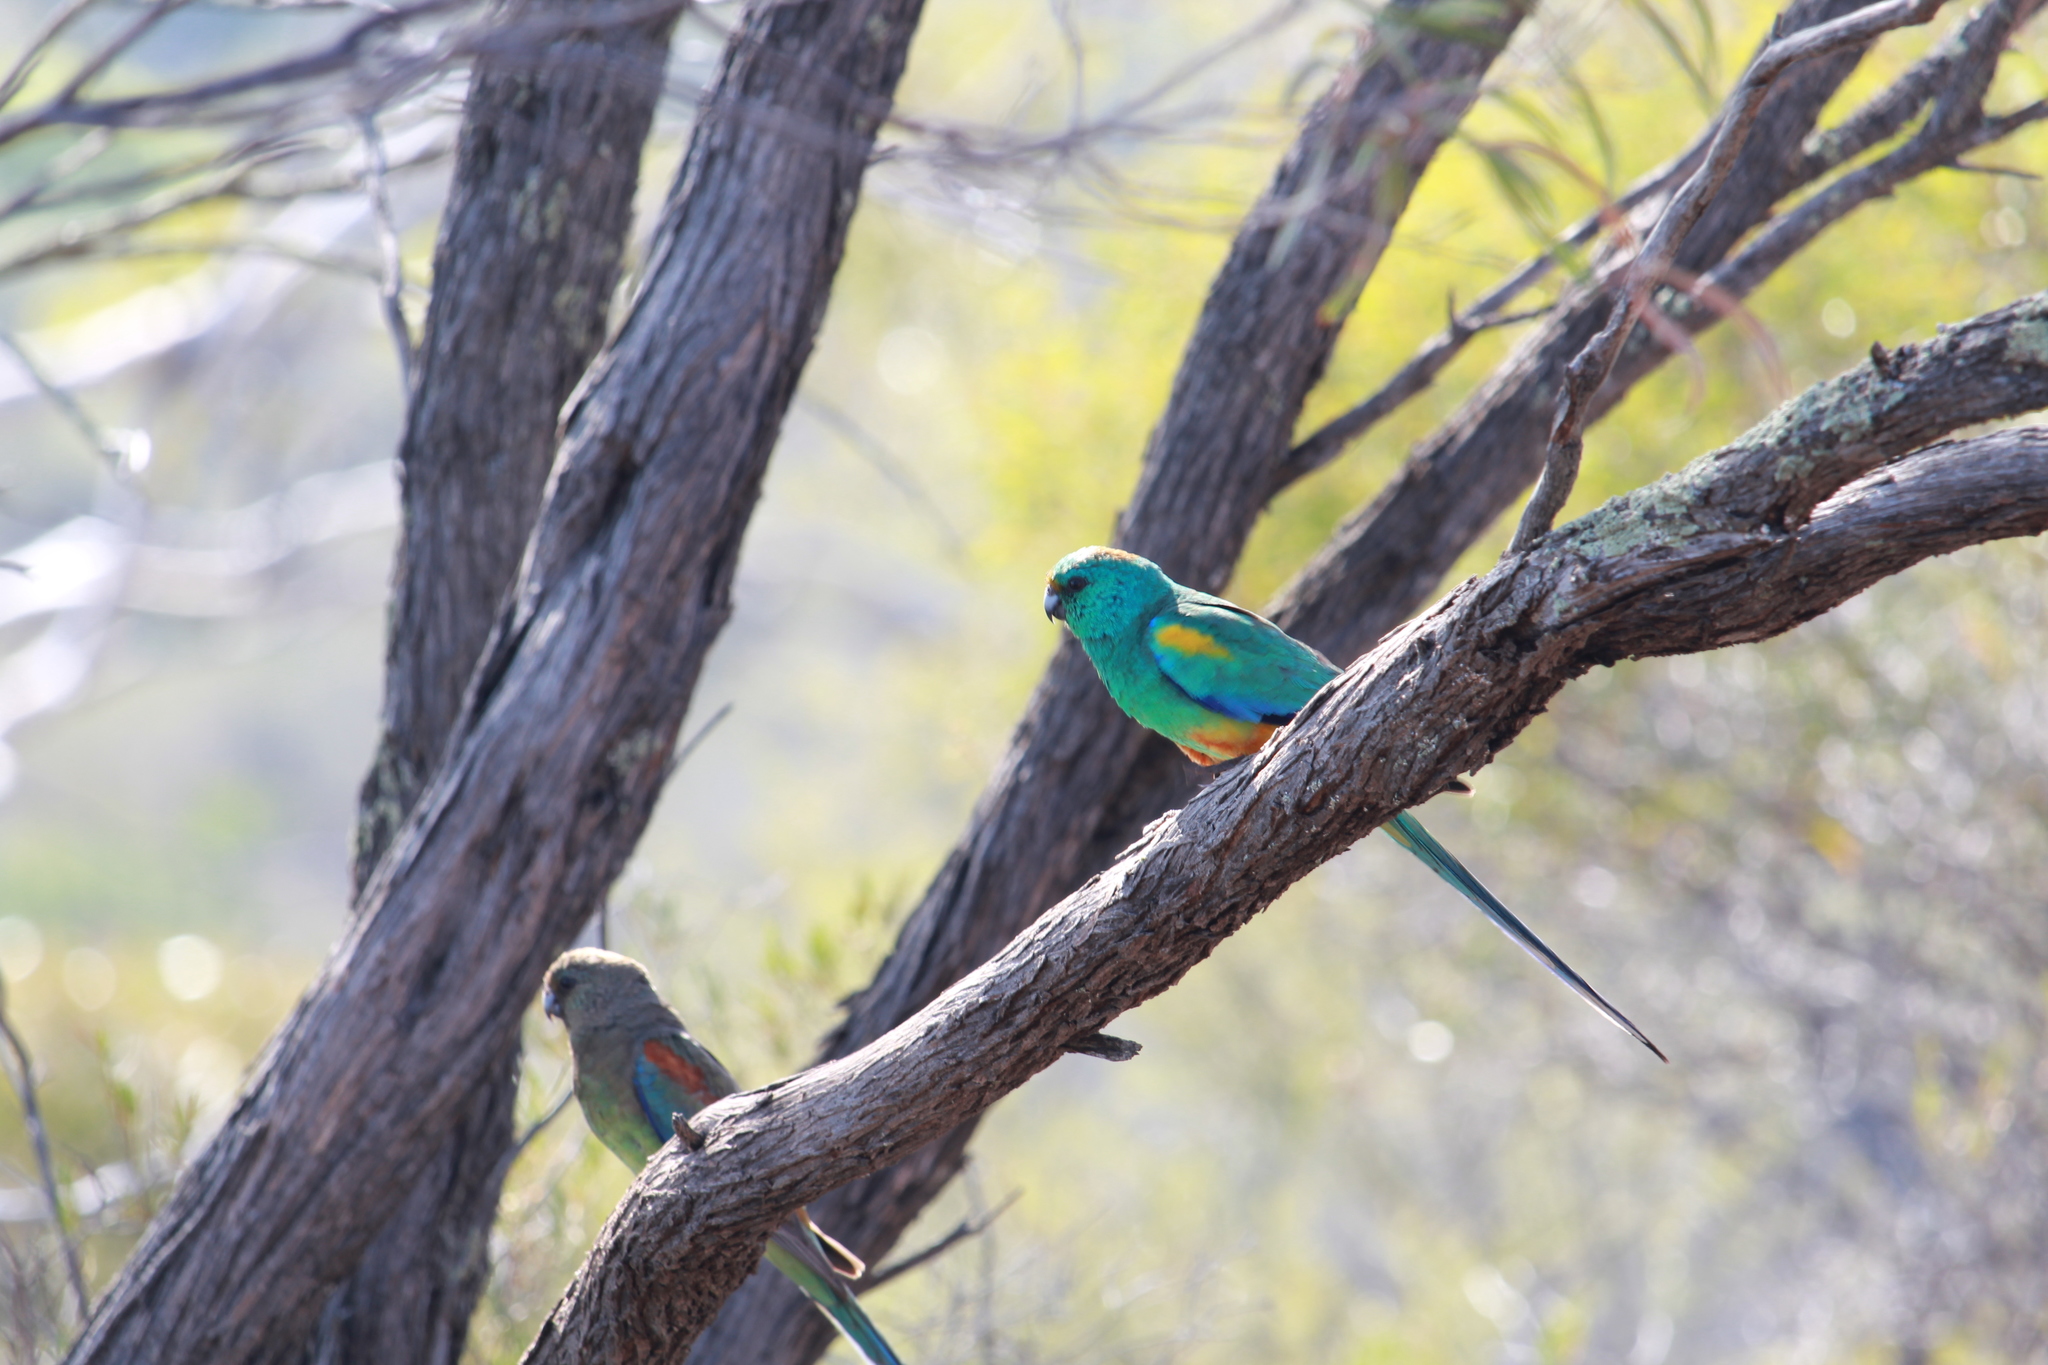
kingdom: Animalia
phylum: Chordata
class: Aves
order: Psittaciformes
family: Psittaculidae
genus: Psephotellus
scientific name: Psephotellus varius
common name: Mulga parrot
